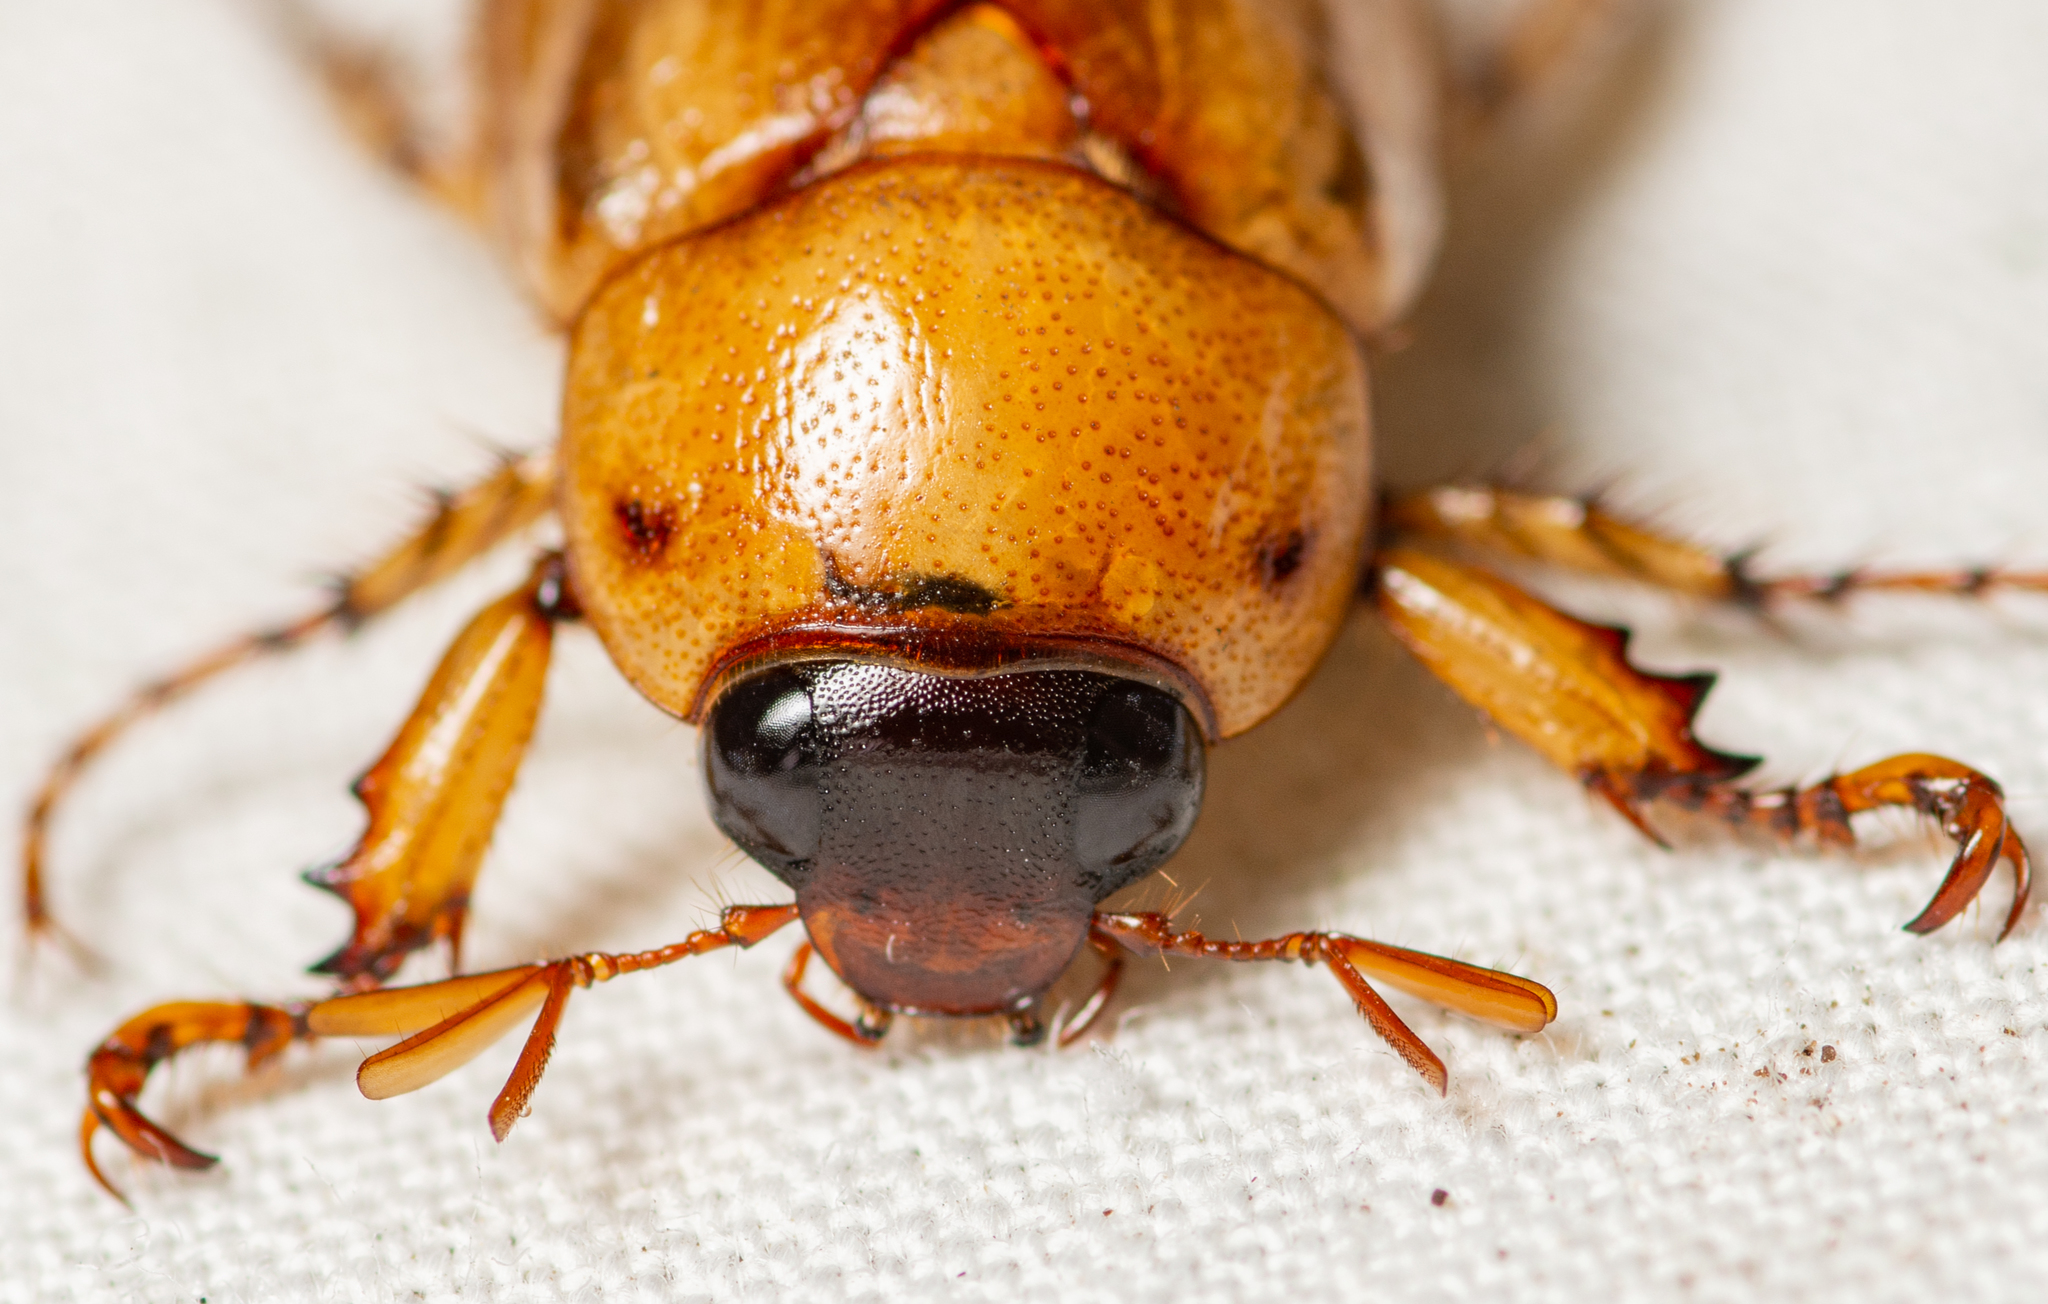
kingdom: Animalia
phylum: Arthropoda
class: Insecta
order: Coleoptera
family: Scarabaeidae
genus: Cyclocephala
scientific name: Cyclocephala lurida
